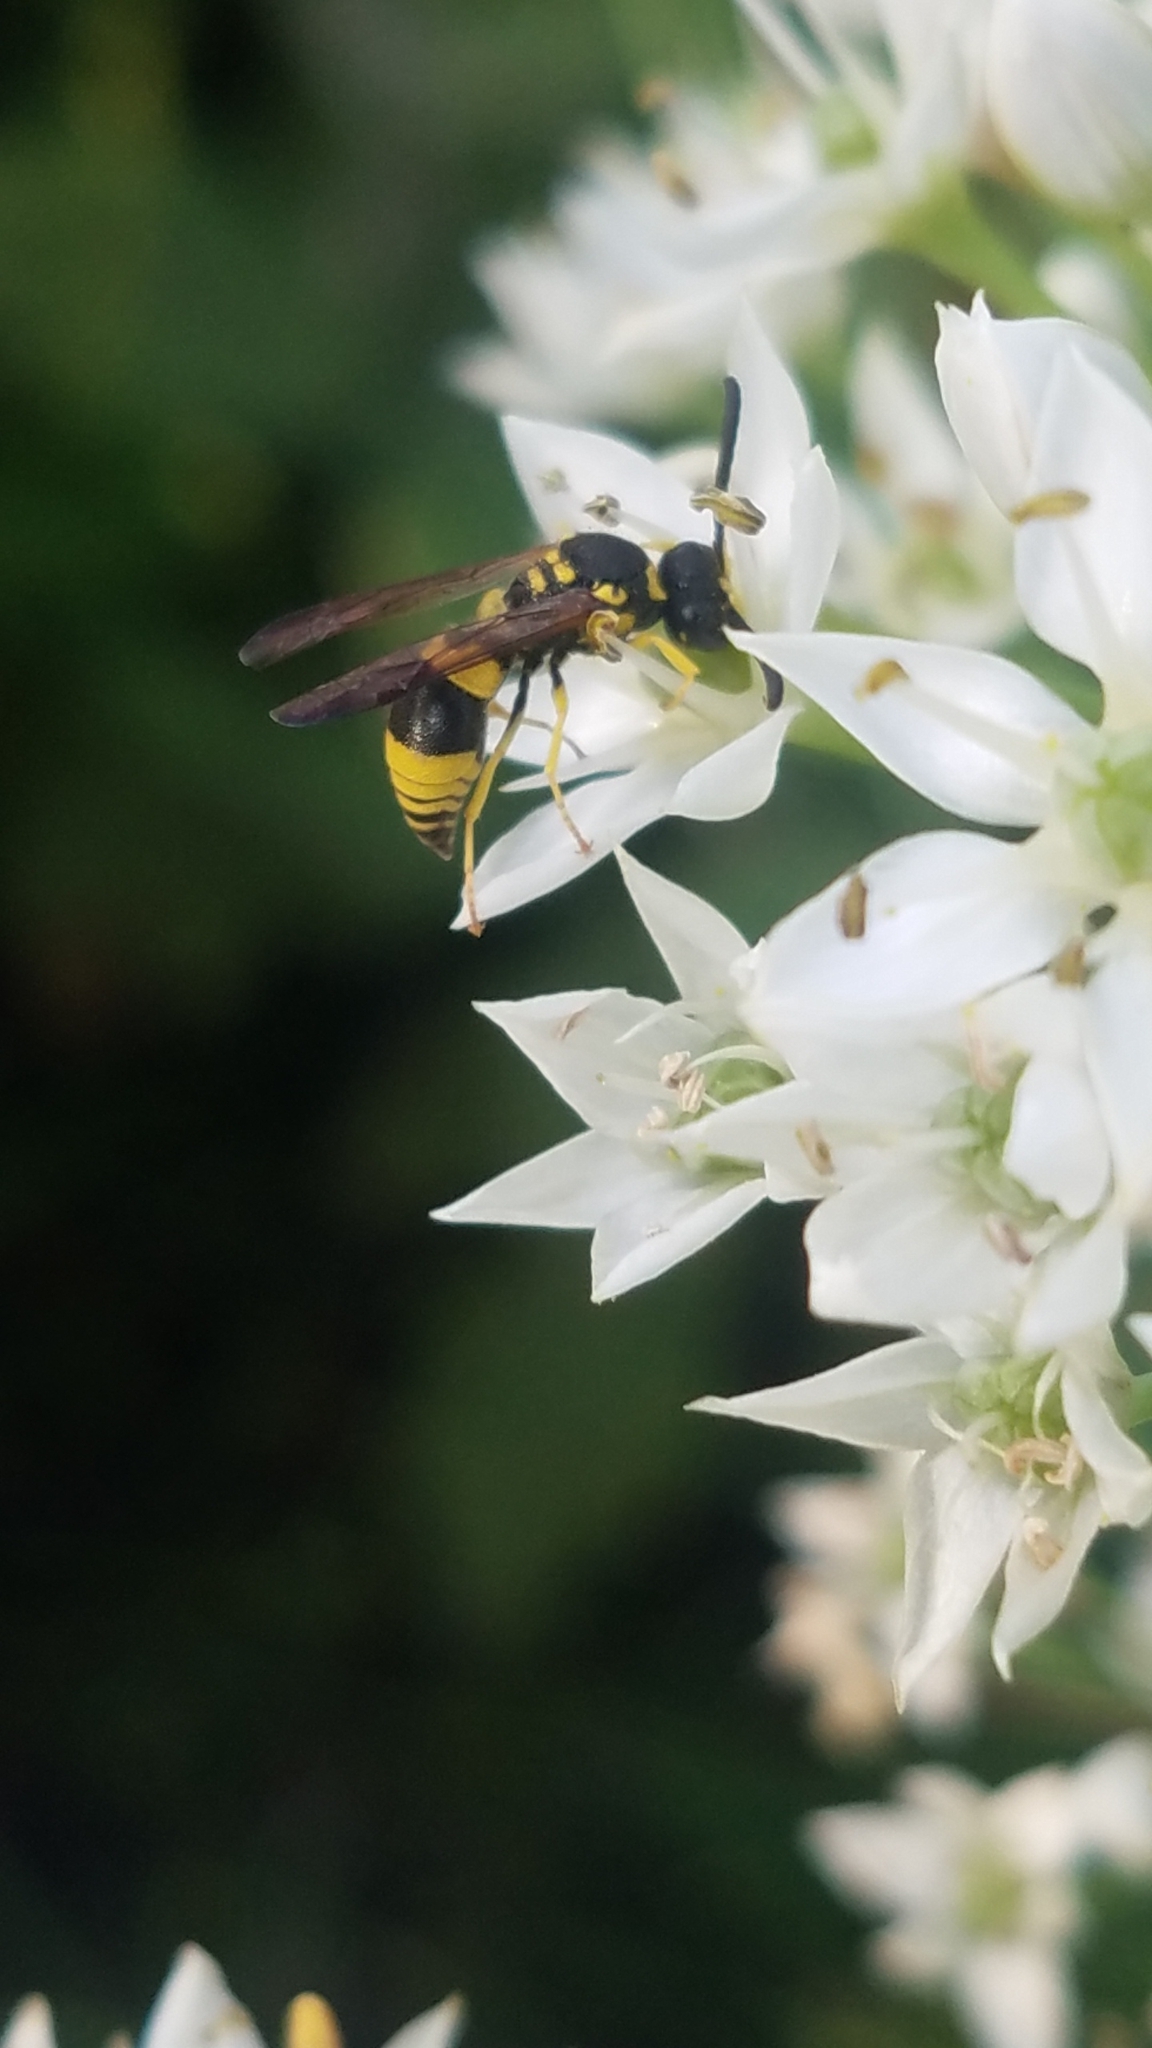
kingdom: Animalia
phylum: Arthropoda
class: Insecta
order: Hymenoptera
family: Vespidae
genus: Ancistrocerus
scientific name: Ancistrocerus gazella
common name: European tube wasp
